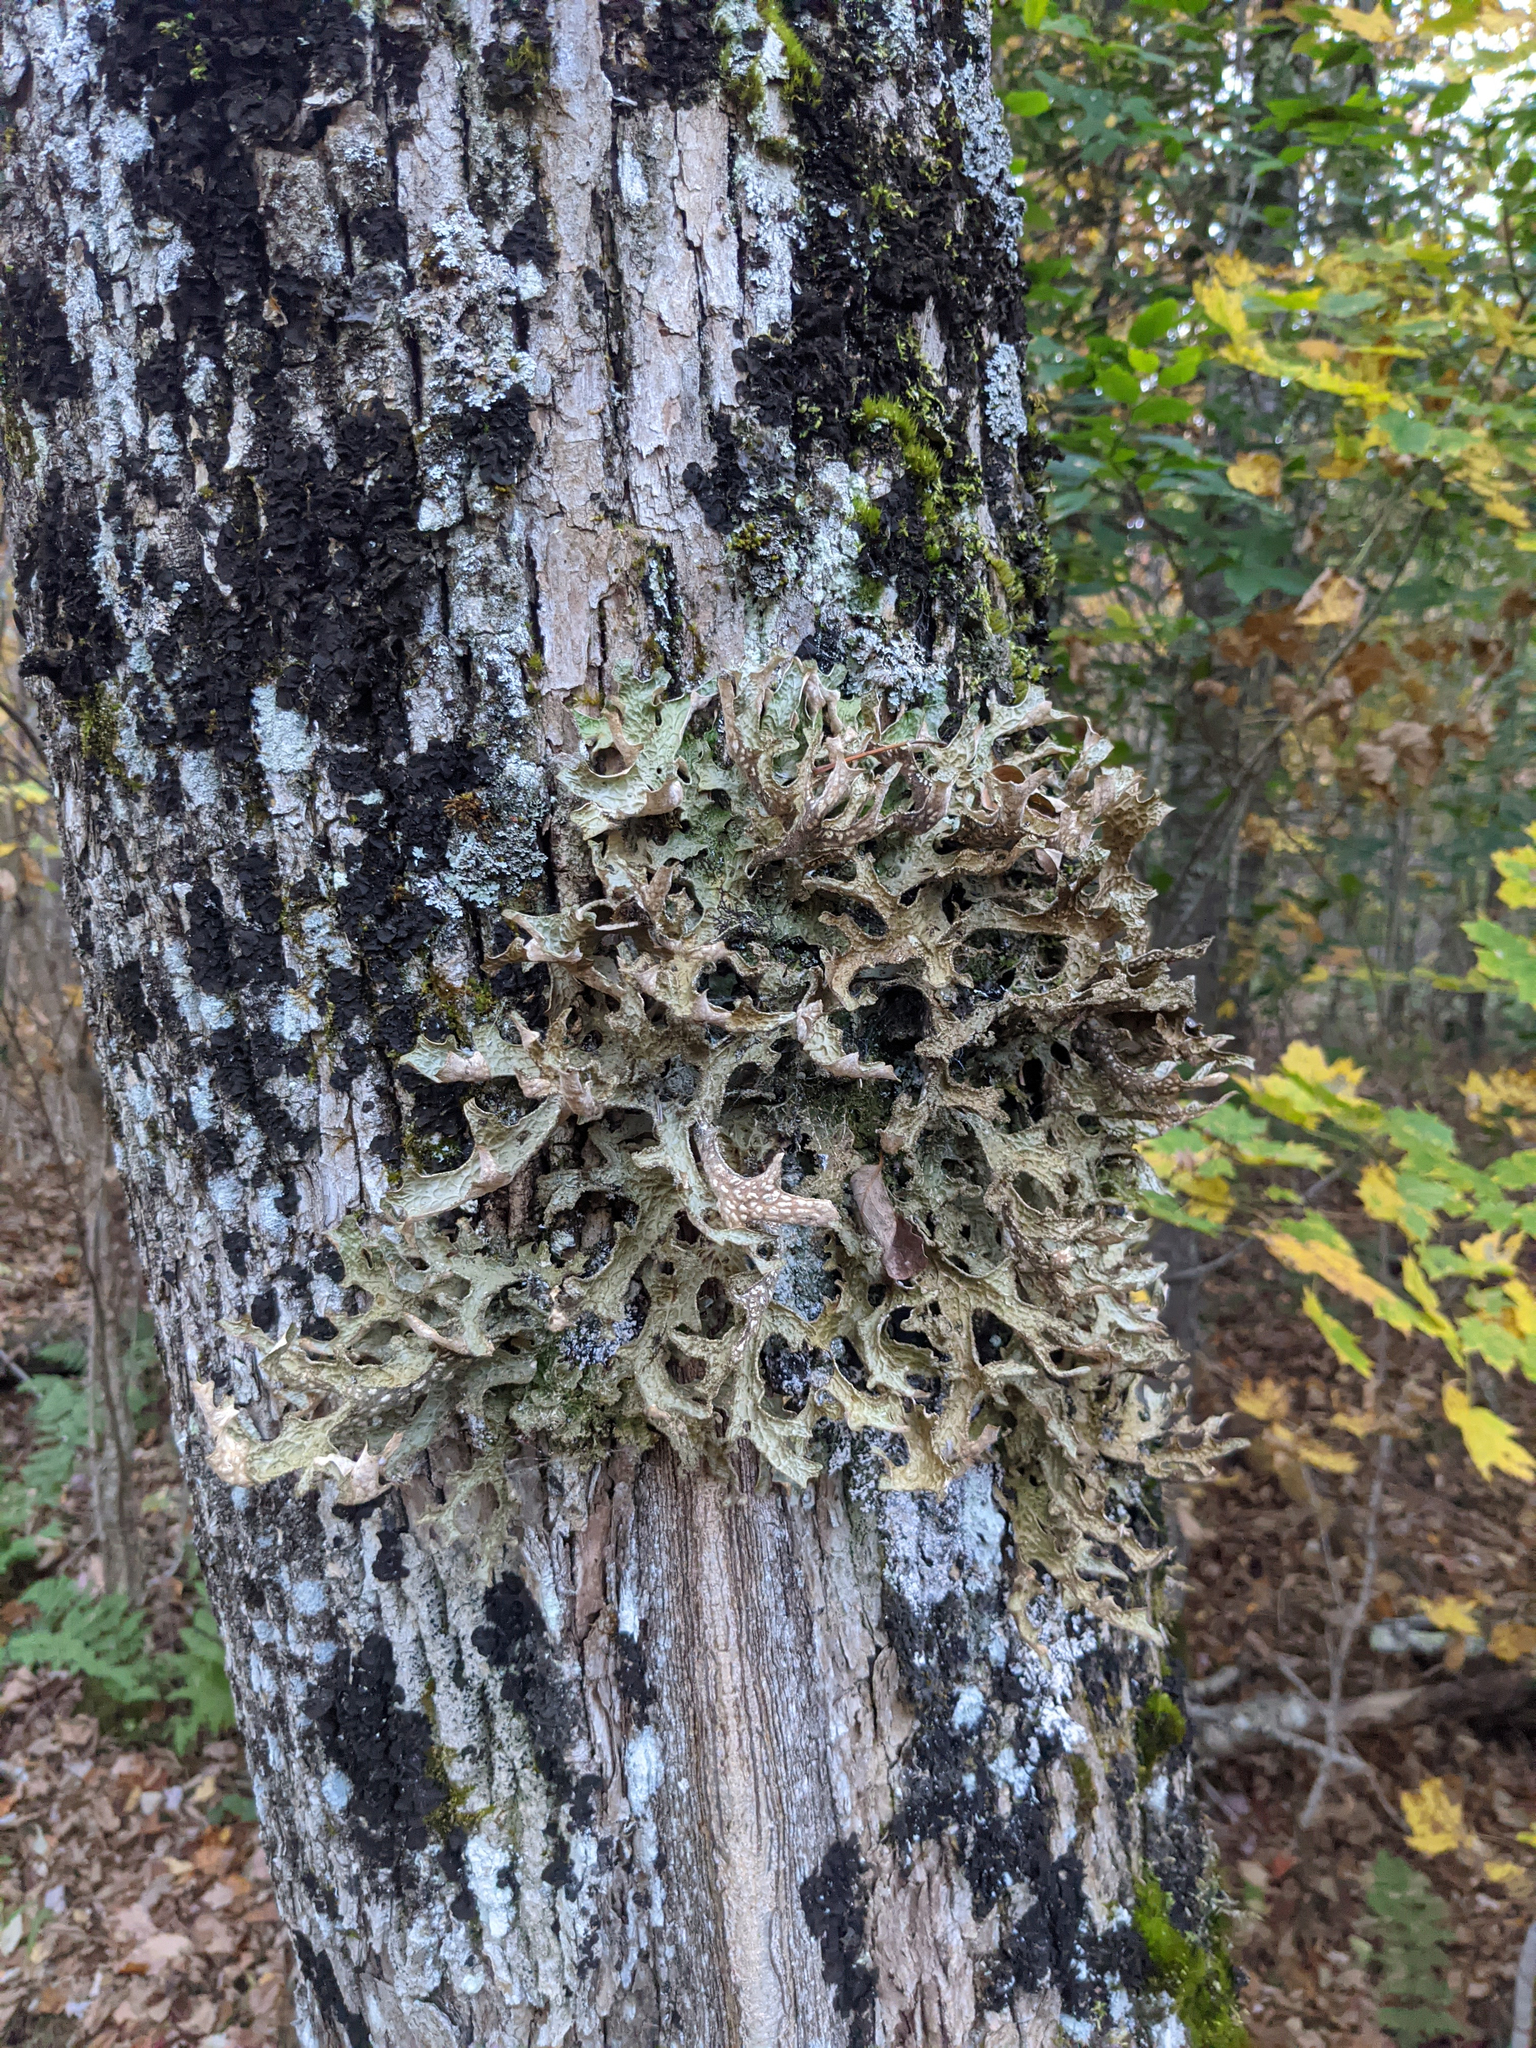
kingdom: Fungi
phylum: Ascomycota
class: Lecanoromycetes
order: Peltigerales
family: Lobariaceae
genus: Lobaria
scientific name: Lobaria pulmonaria
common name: Lungwort
